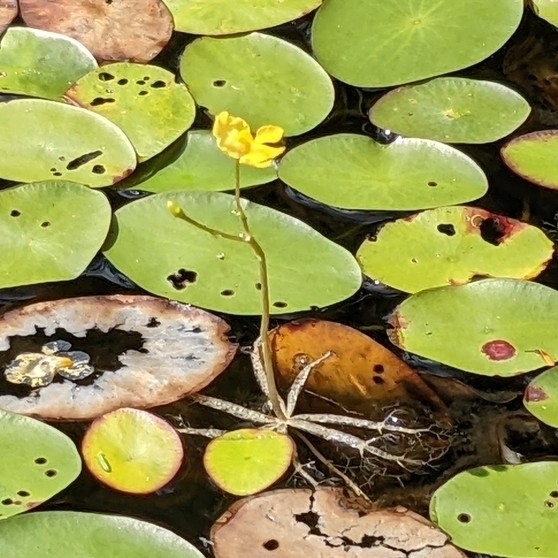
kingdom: Plantae
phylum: Tracheophyta
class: Magnoliopsida
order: Lamiales
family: Lentibulariaceae
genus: Utricularia
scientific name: Utricularia radiata
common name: Floating bladderwort
